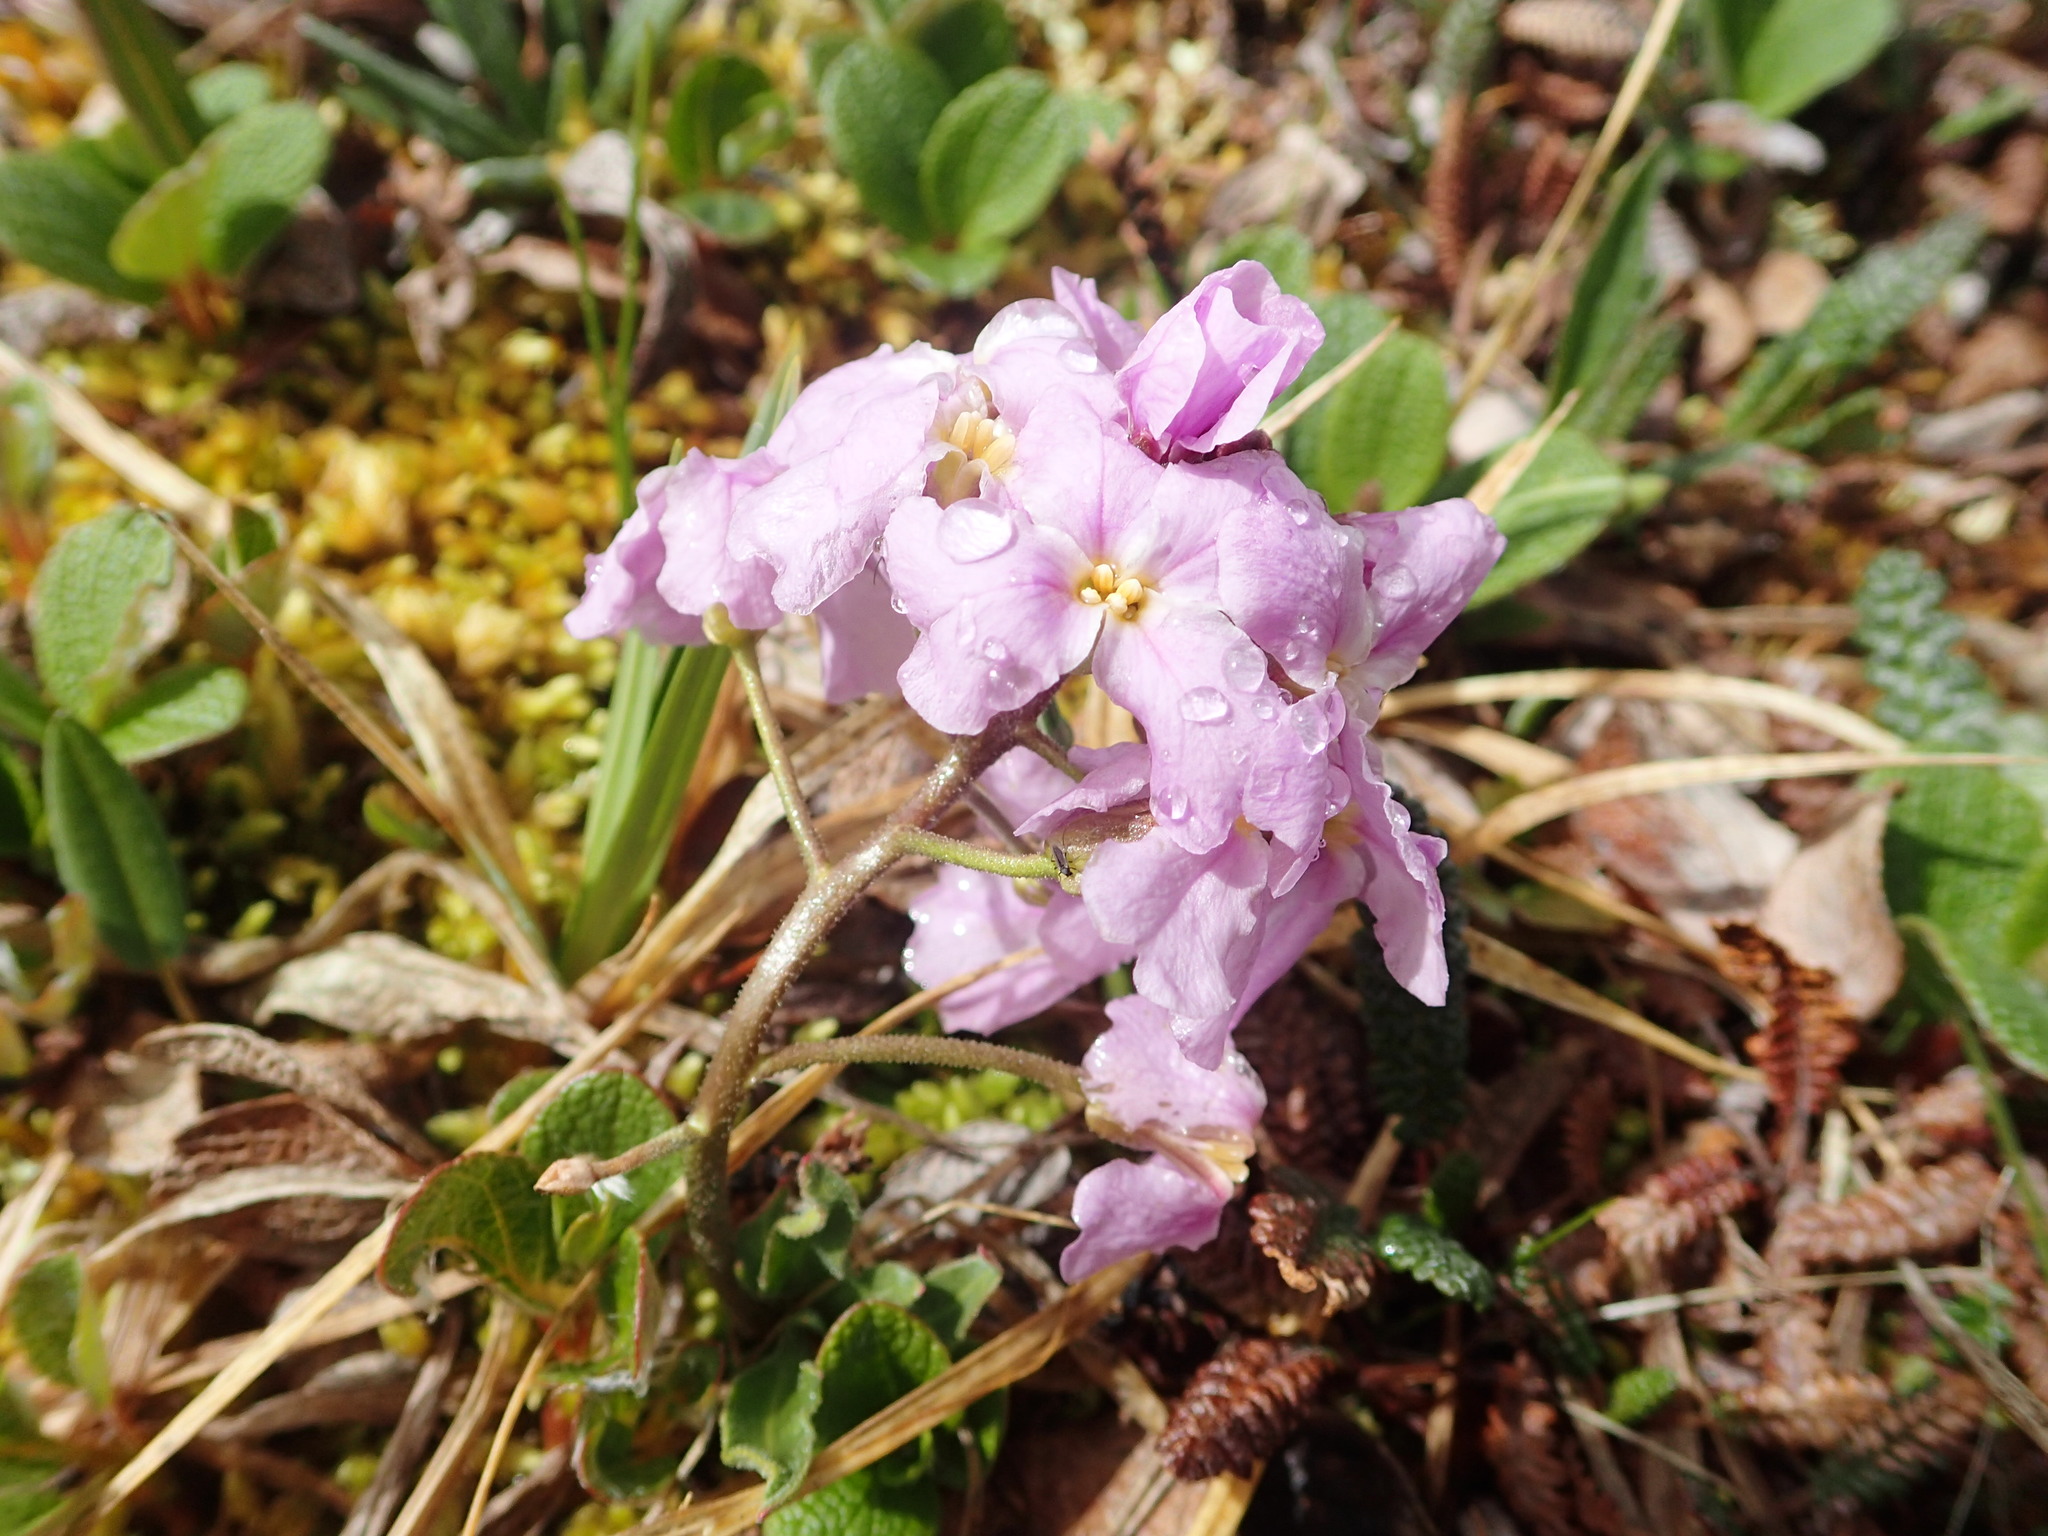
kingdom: Plantae
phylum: Tracheophyta
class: Magnoliopsida
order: Brassicales
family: Brassicaceae
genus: Parrya
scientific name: Parrya nudicaulis
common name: Naked-stemmed false wallflower
